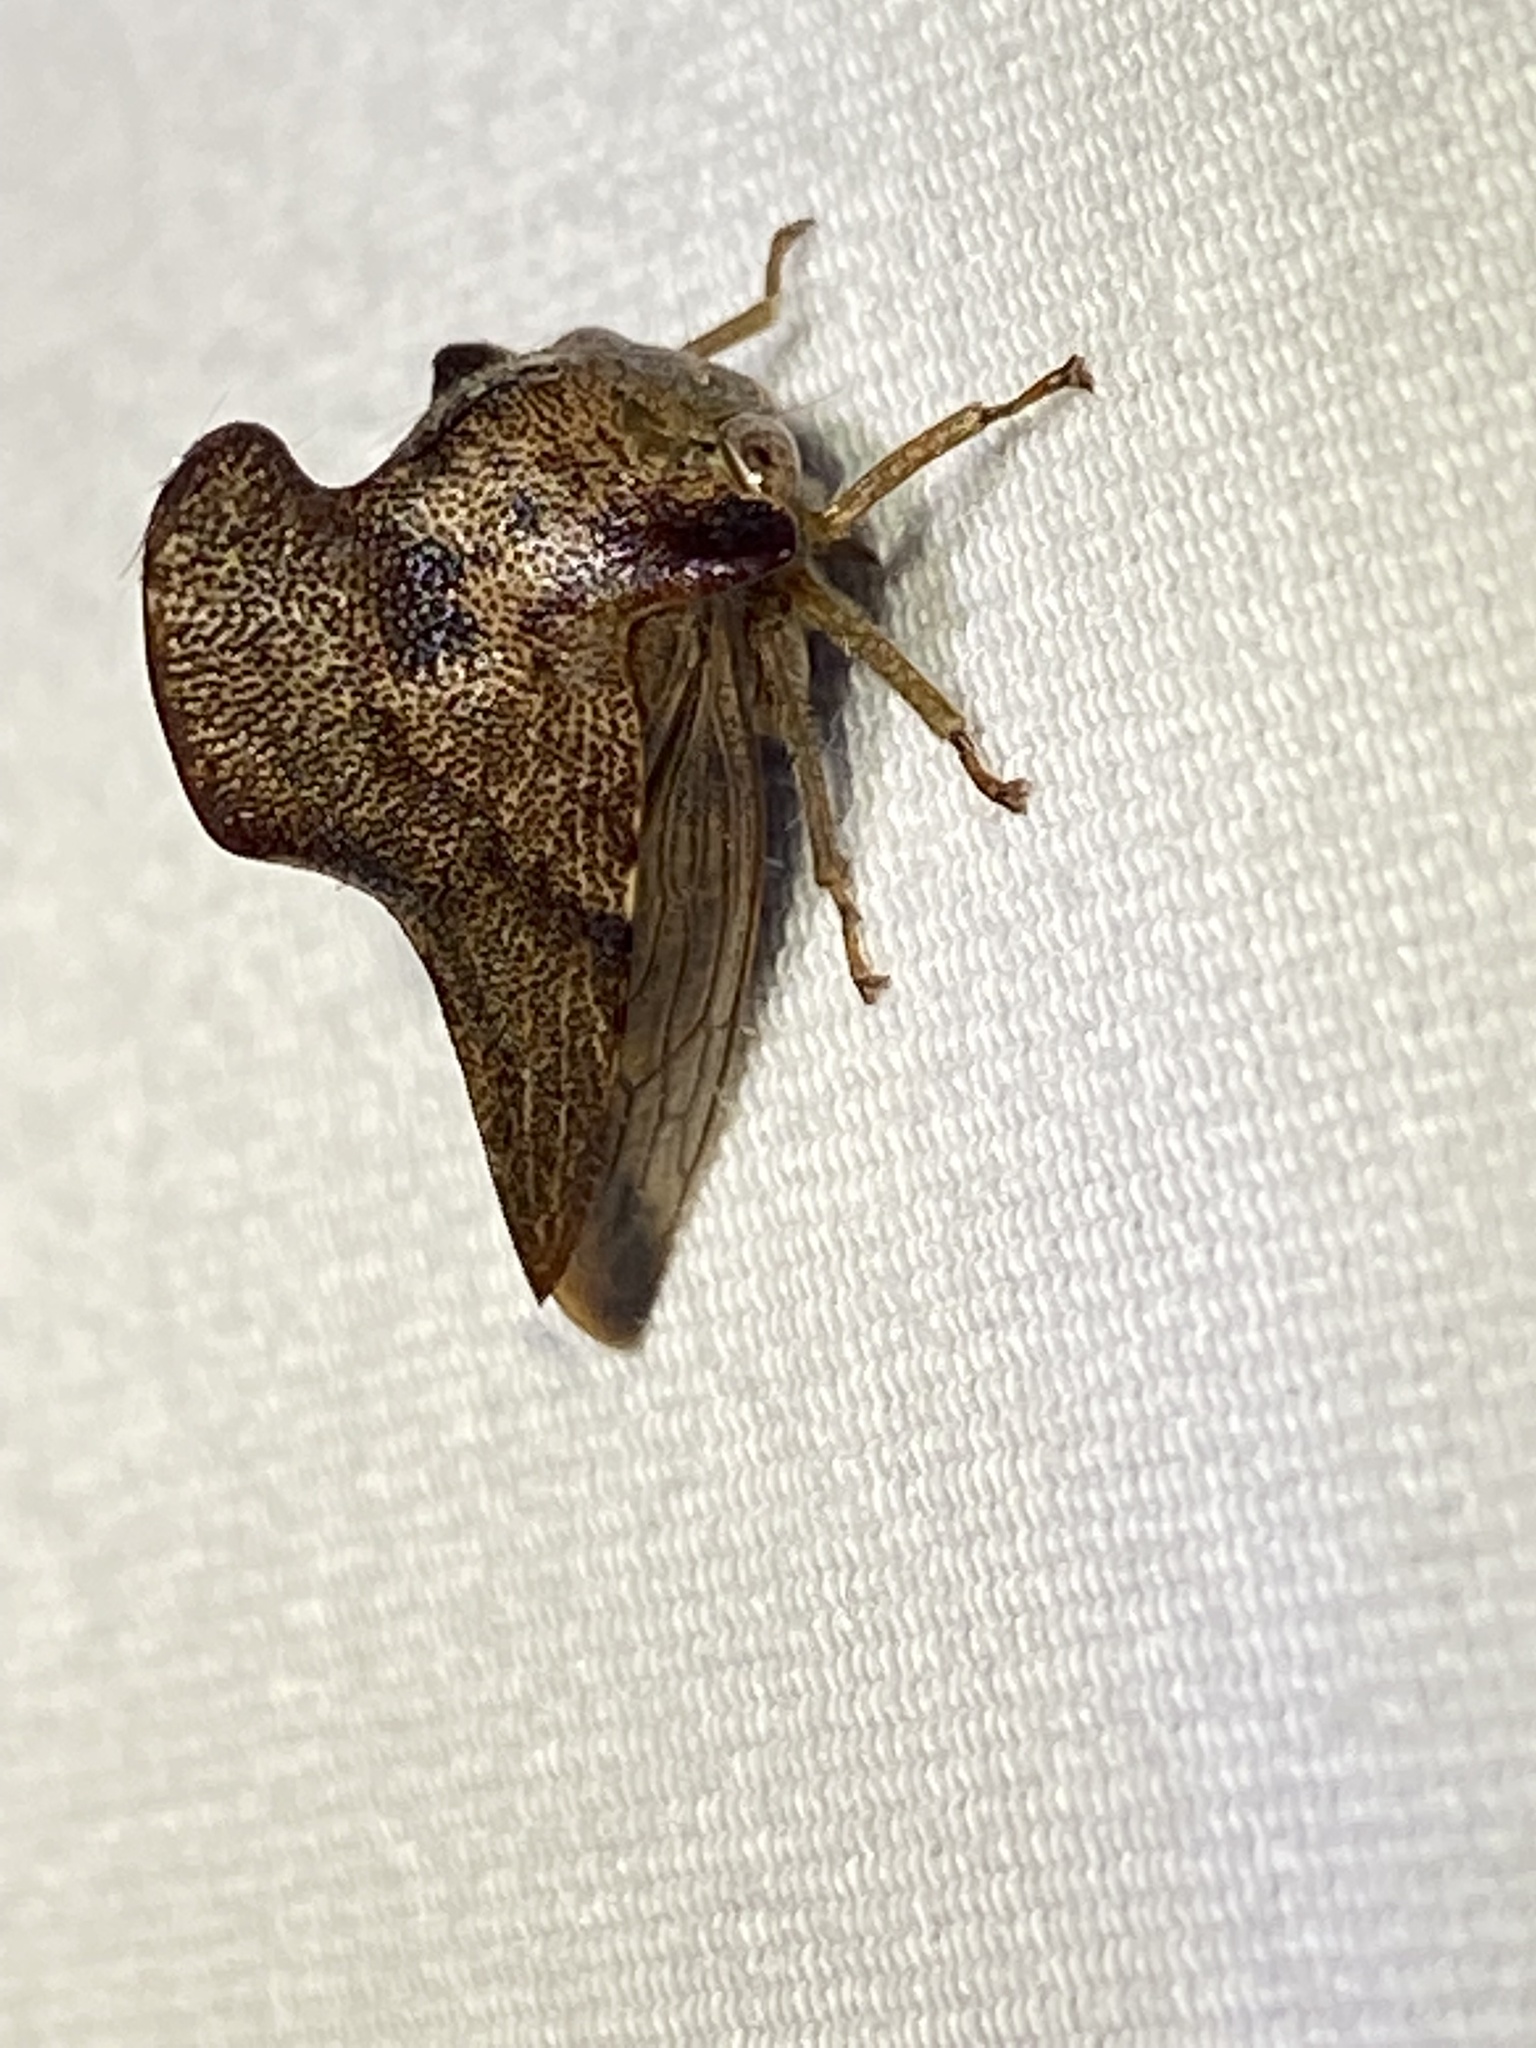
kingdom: Animalia
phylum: Arthropoda
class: Insecta
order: Hemiptera
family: Membracidae
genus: Telamona
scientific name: Telamona projecta
